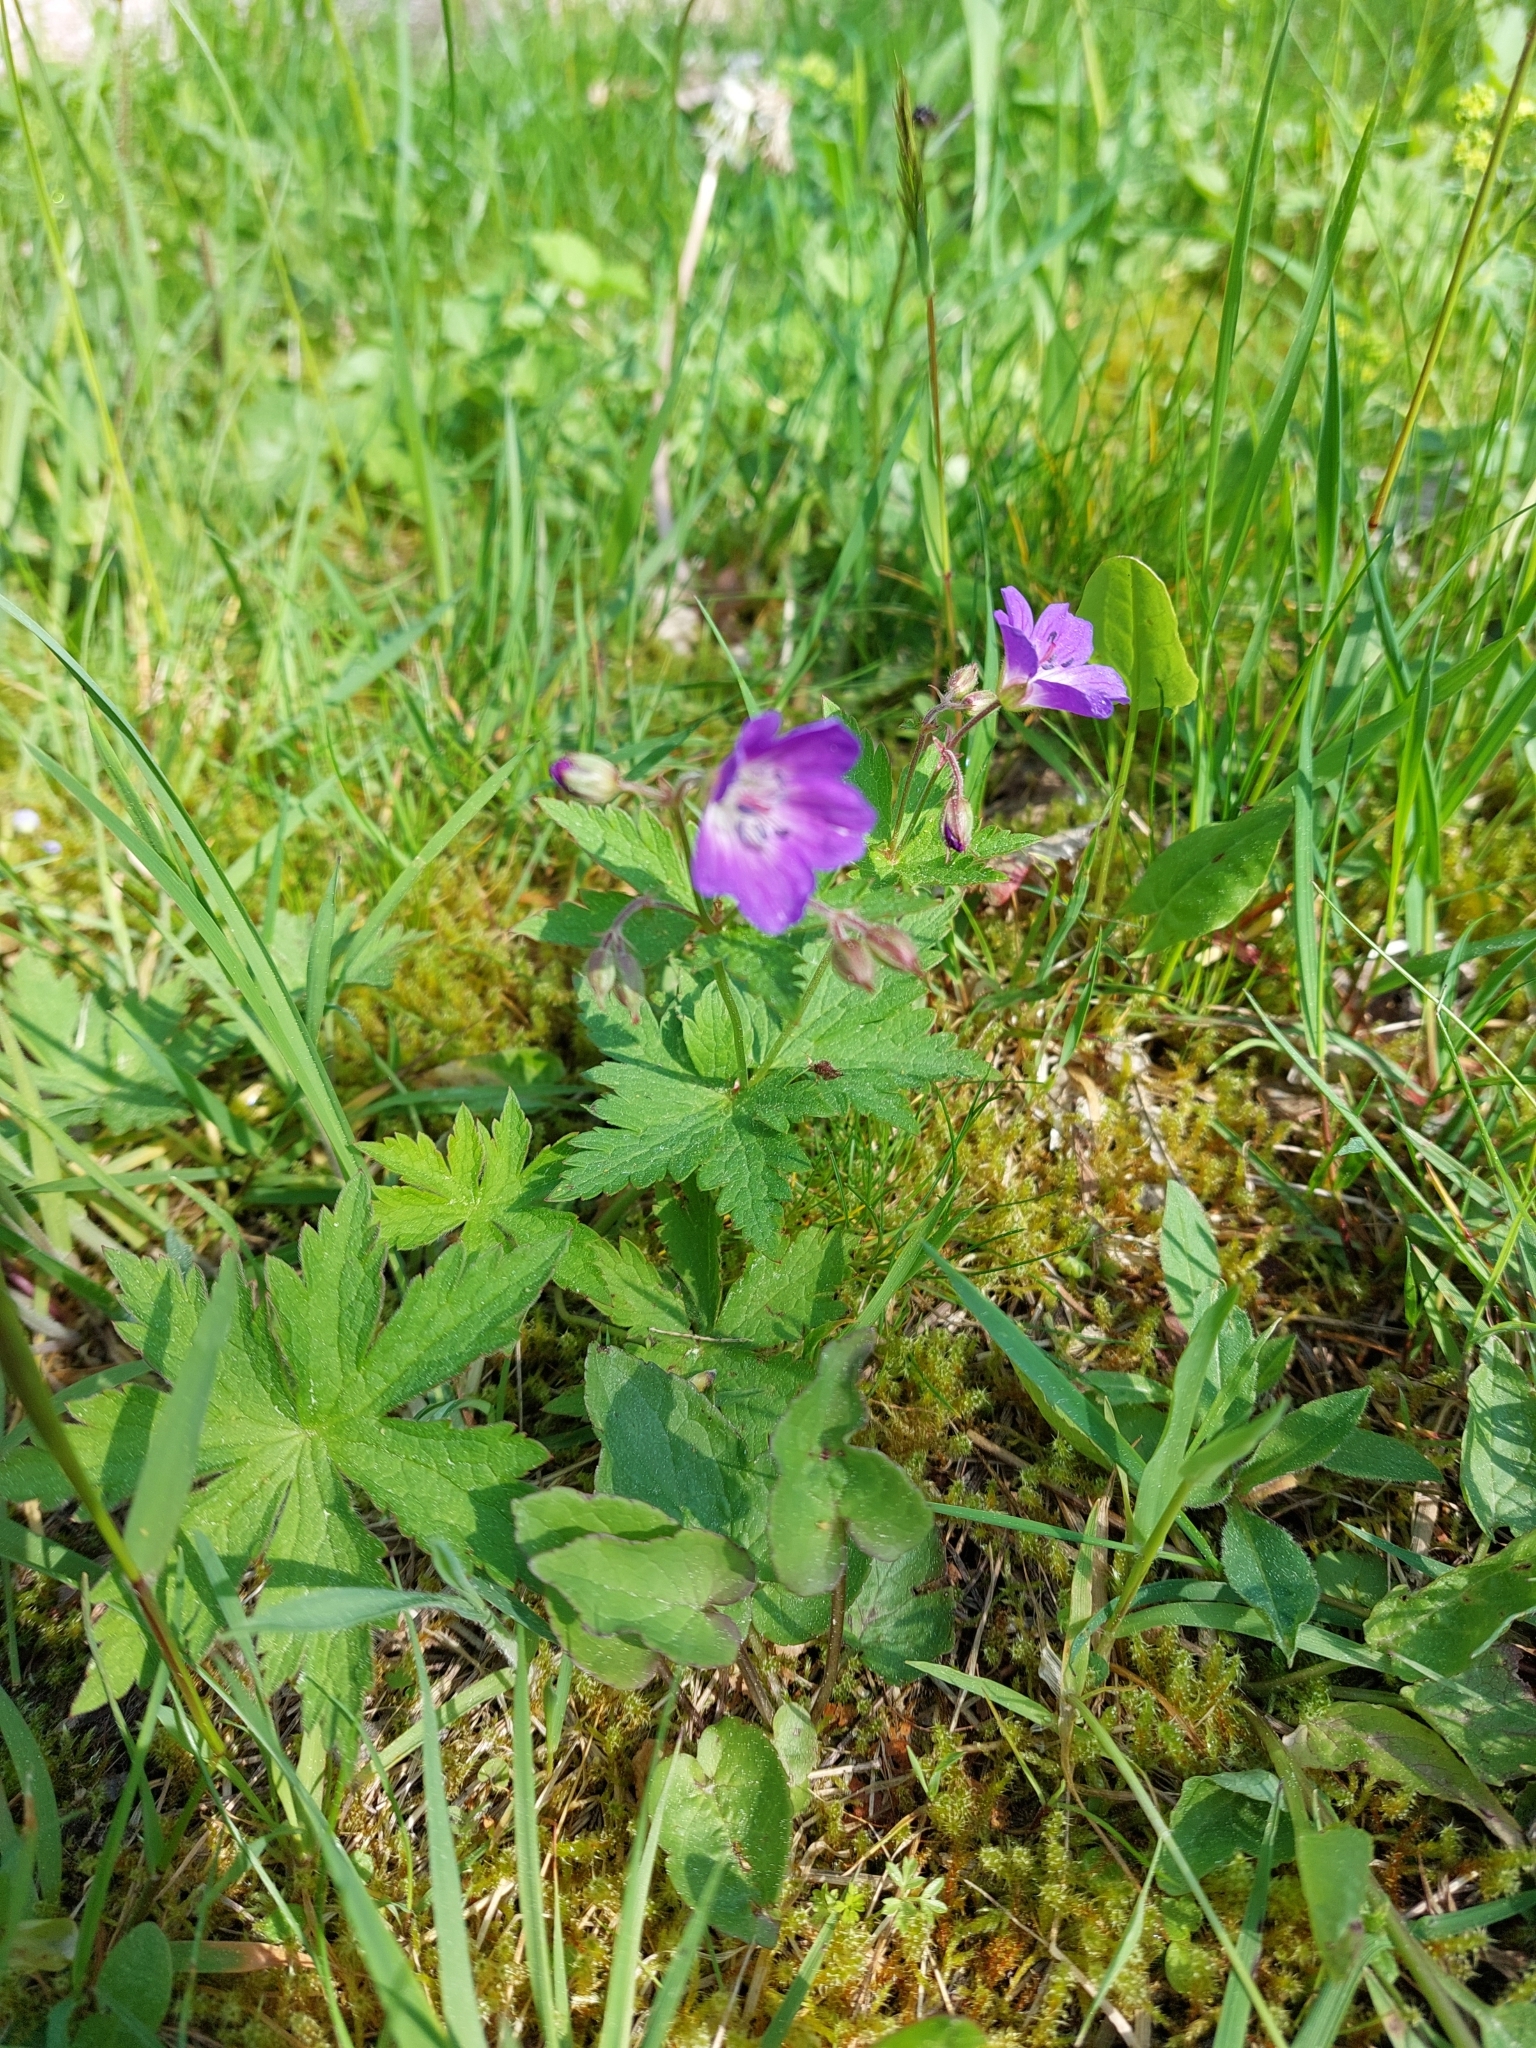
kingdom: Plantae
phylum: Tracheophyta
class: Magnoliopsida
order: Geraniales
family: Geraniaceae
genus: Geranium
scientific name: Geranium sylvaticum
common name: Wood crane's-bill
